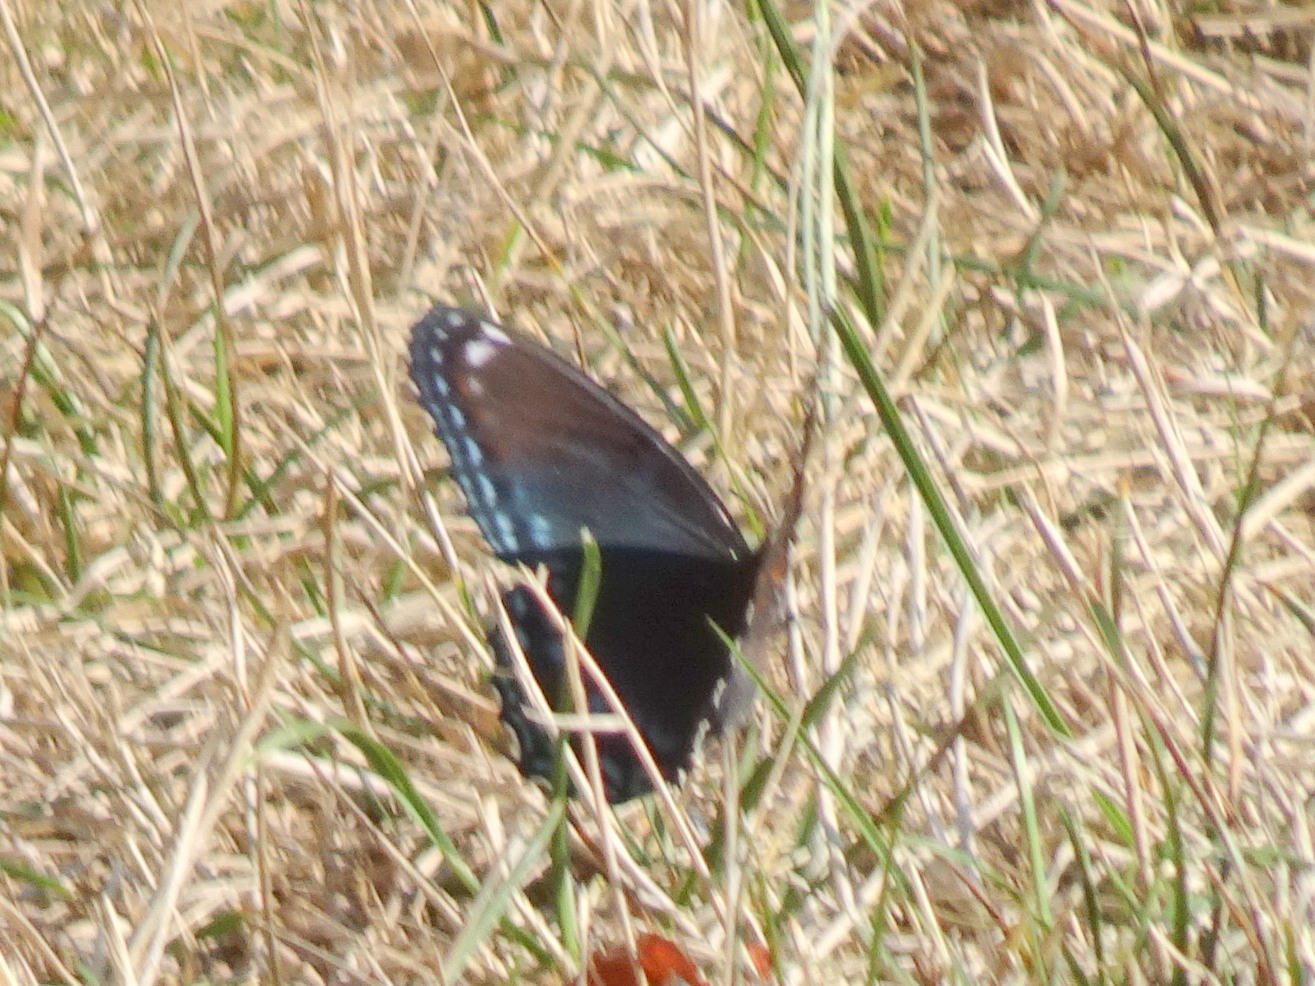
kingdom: Animalia
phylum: Arthropoda
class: Insecta
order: Lepidoptera
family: Nymphalidae
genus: Limenitis
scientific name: Limenitis astyanax
